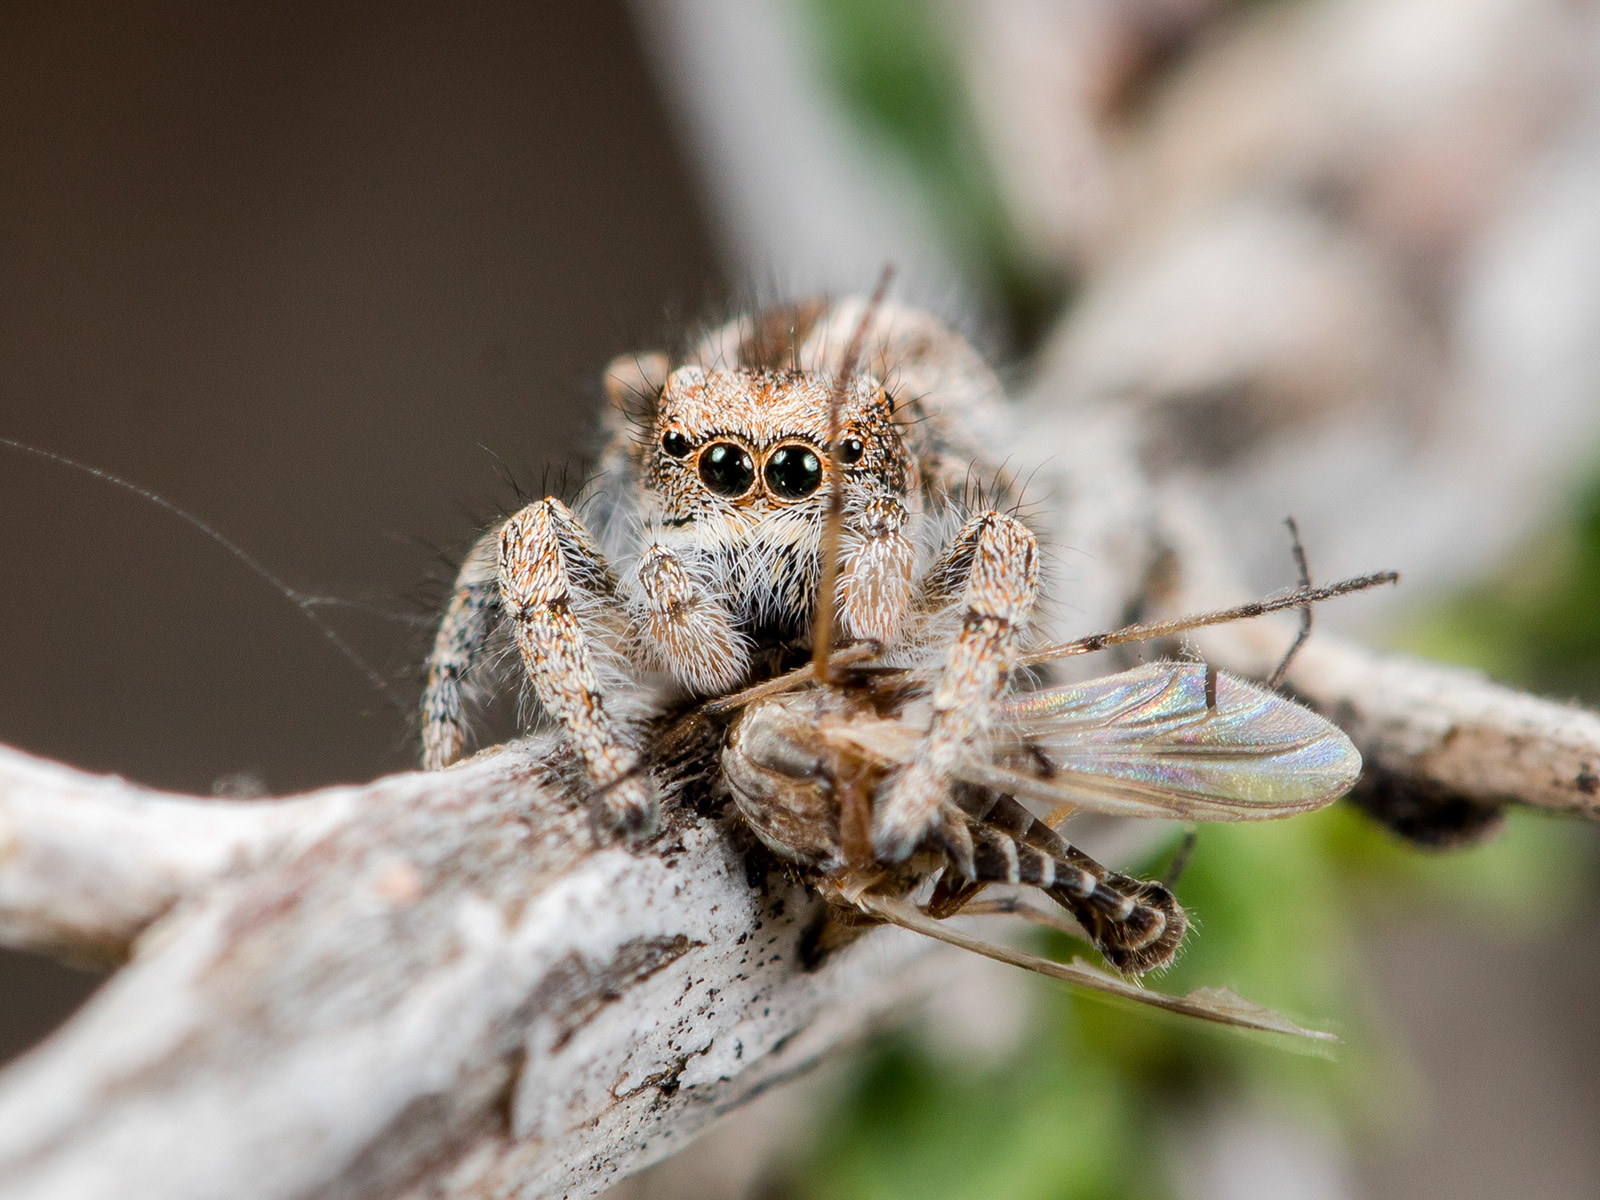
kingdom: Animalia
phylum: Arthropoda
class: Arachnida
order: Araneae
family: Salticidae
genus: Pseudomogrus
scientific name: Pseudomogrus vittatus
